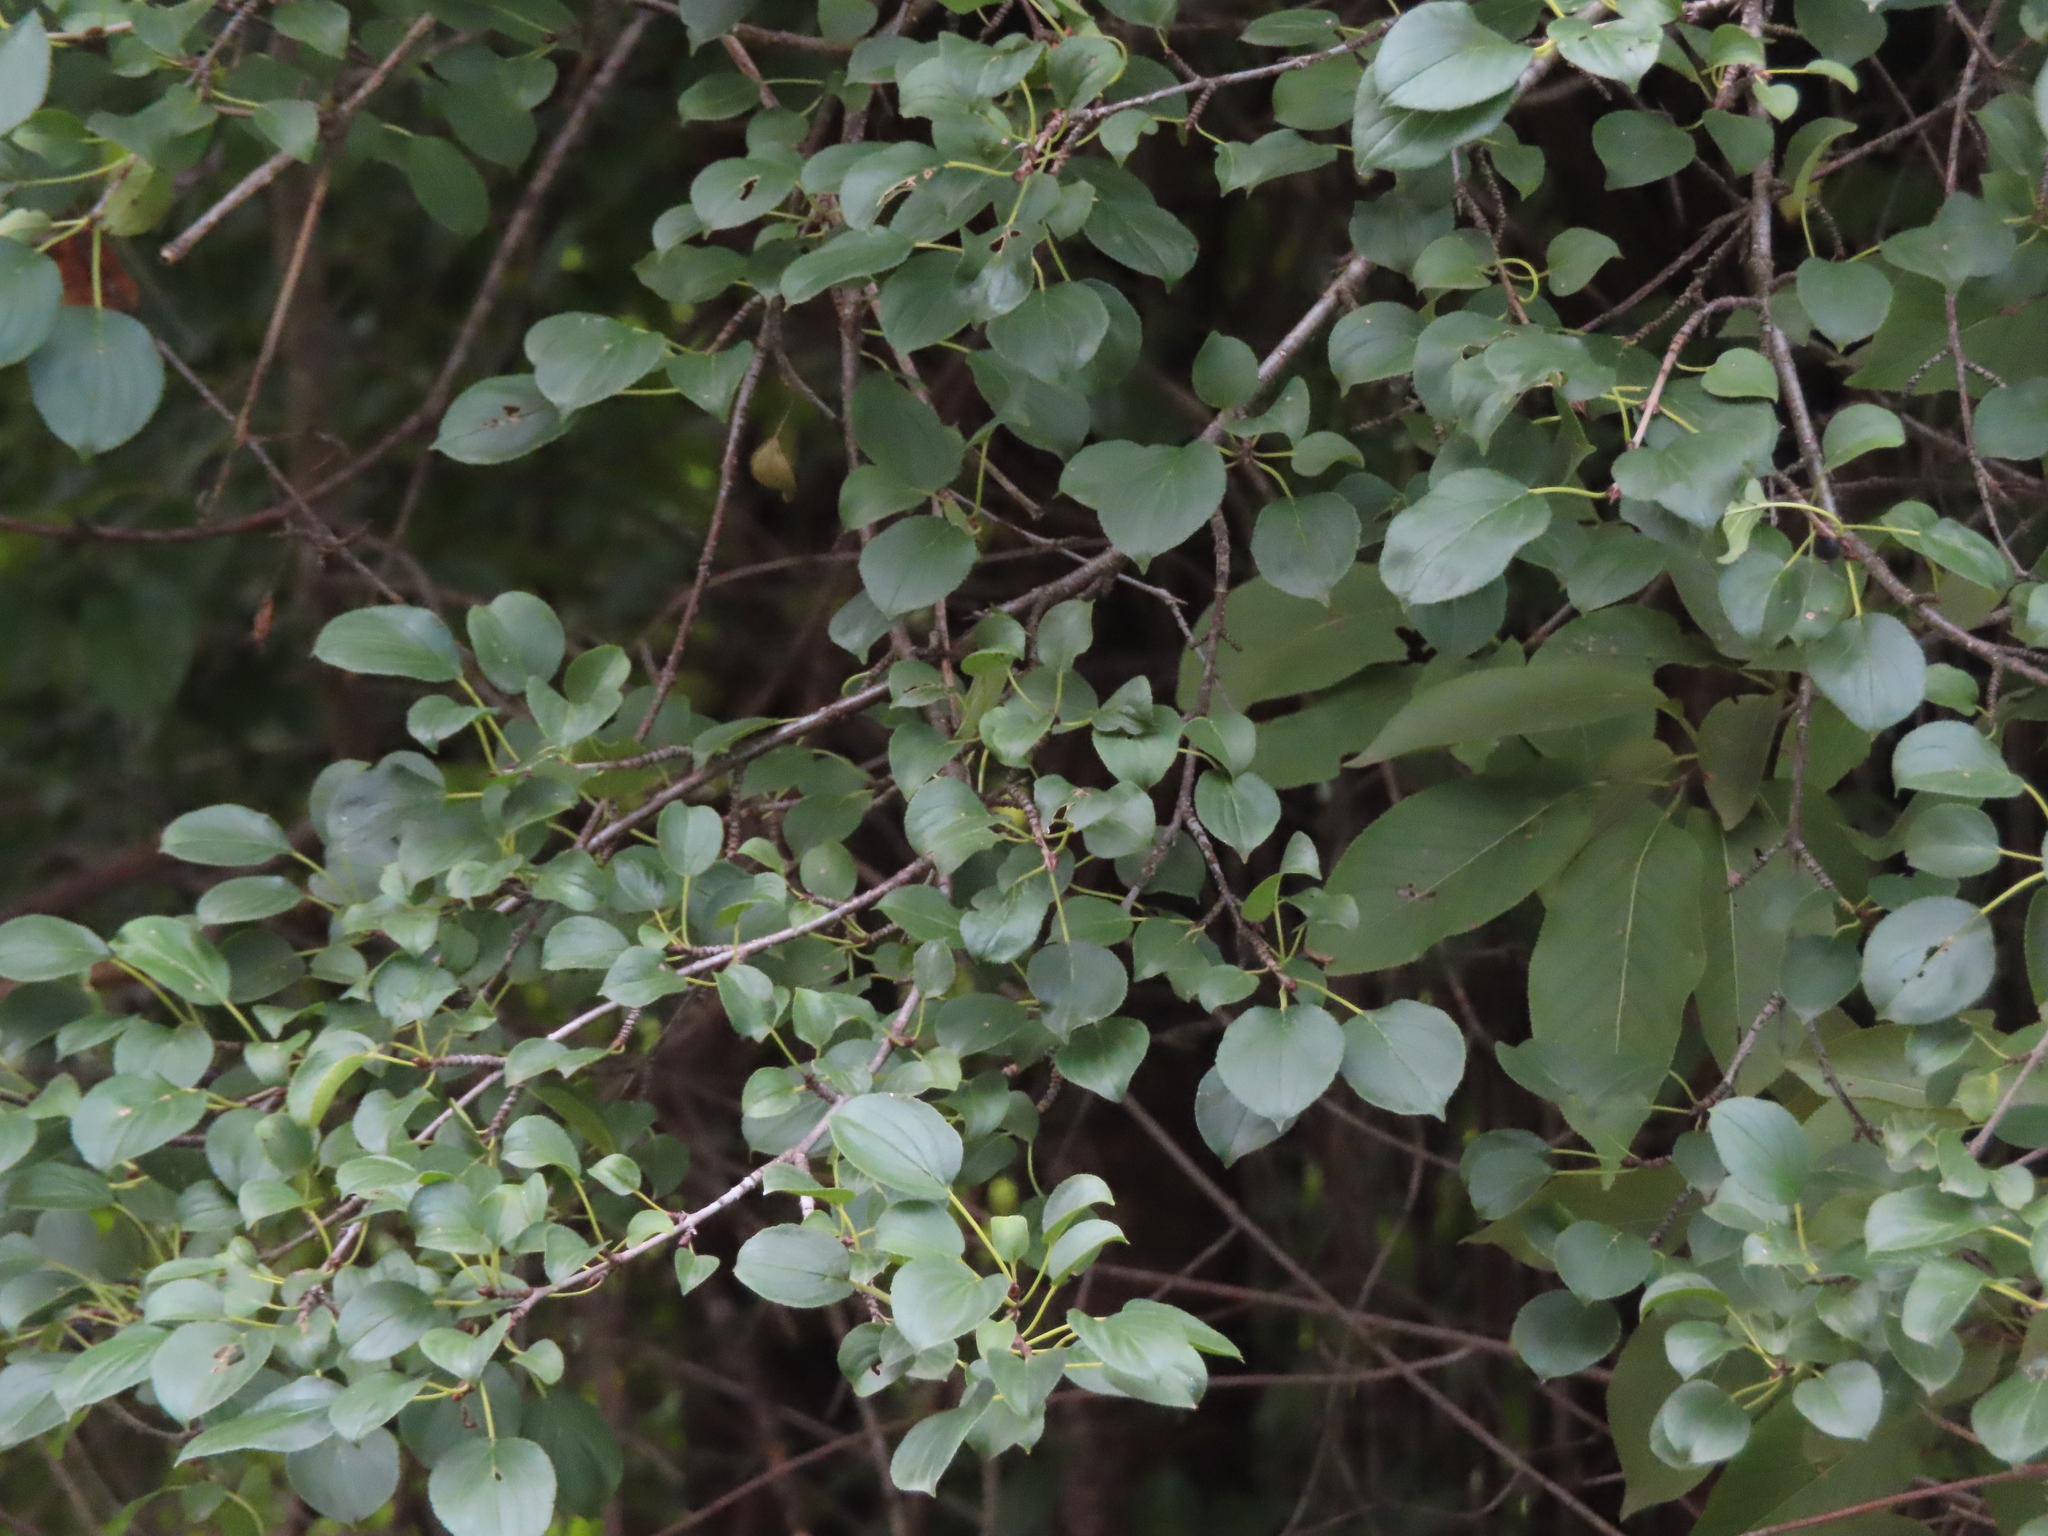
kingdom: Plantae
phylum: Tracheophyta
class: Magnoliopsida
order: Rosales
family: Rhamnaceae
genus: Rhamnus
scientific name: Rhamnus cathartica
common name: Common buckthorn
